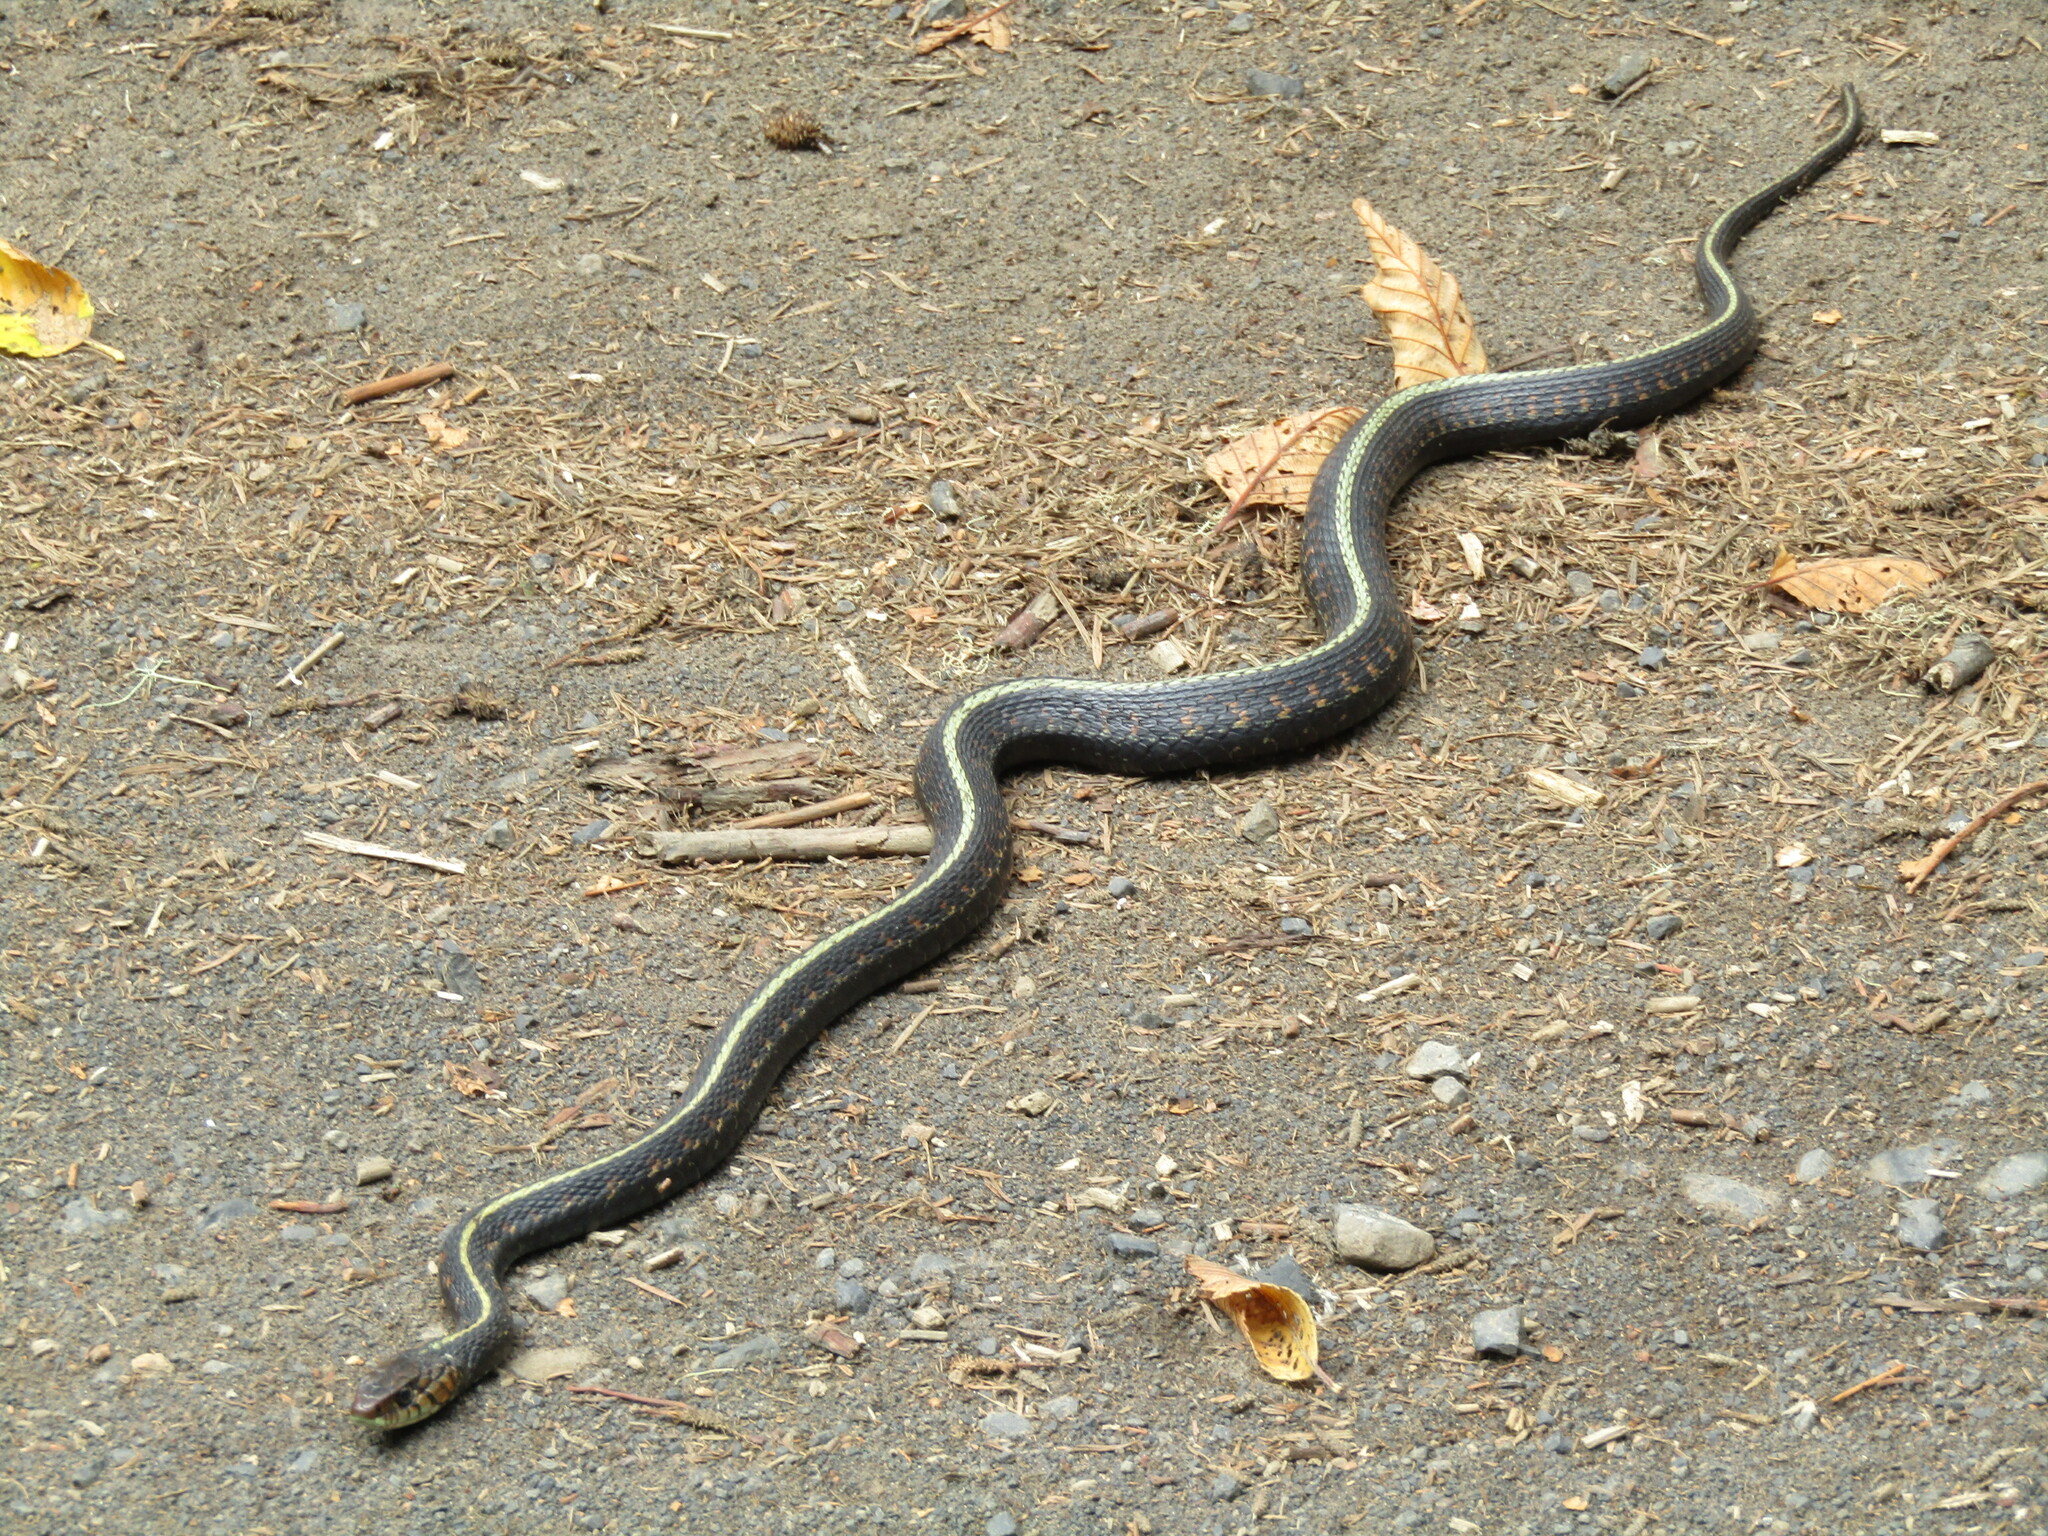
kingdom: Animalia
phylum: Chordata
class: Squamata
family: Colubridae
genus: Thamnophis
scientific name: Thamnophis sirtalis
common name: Common garter snake
